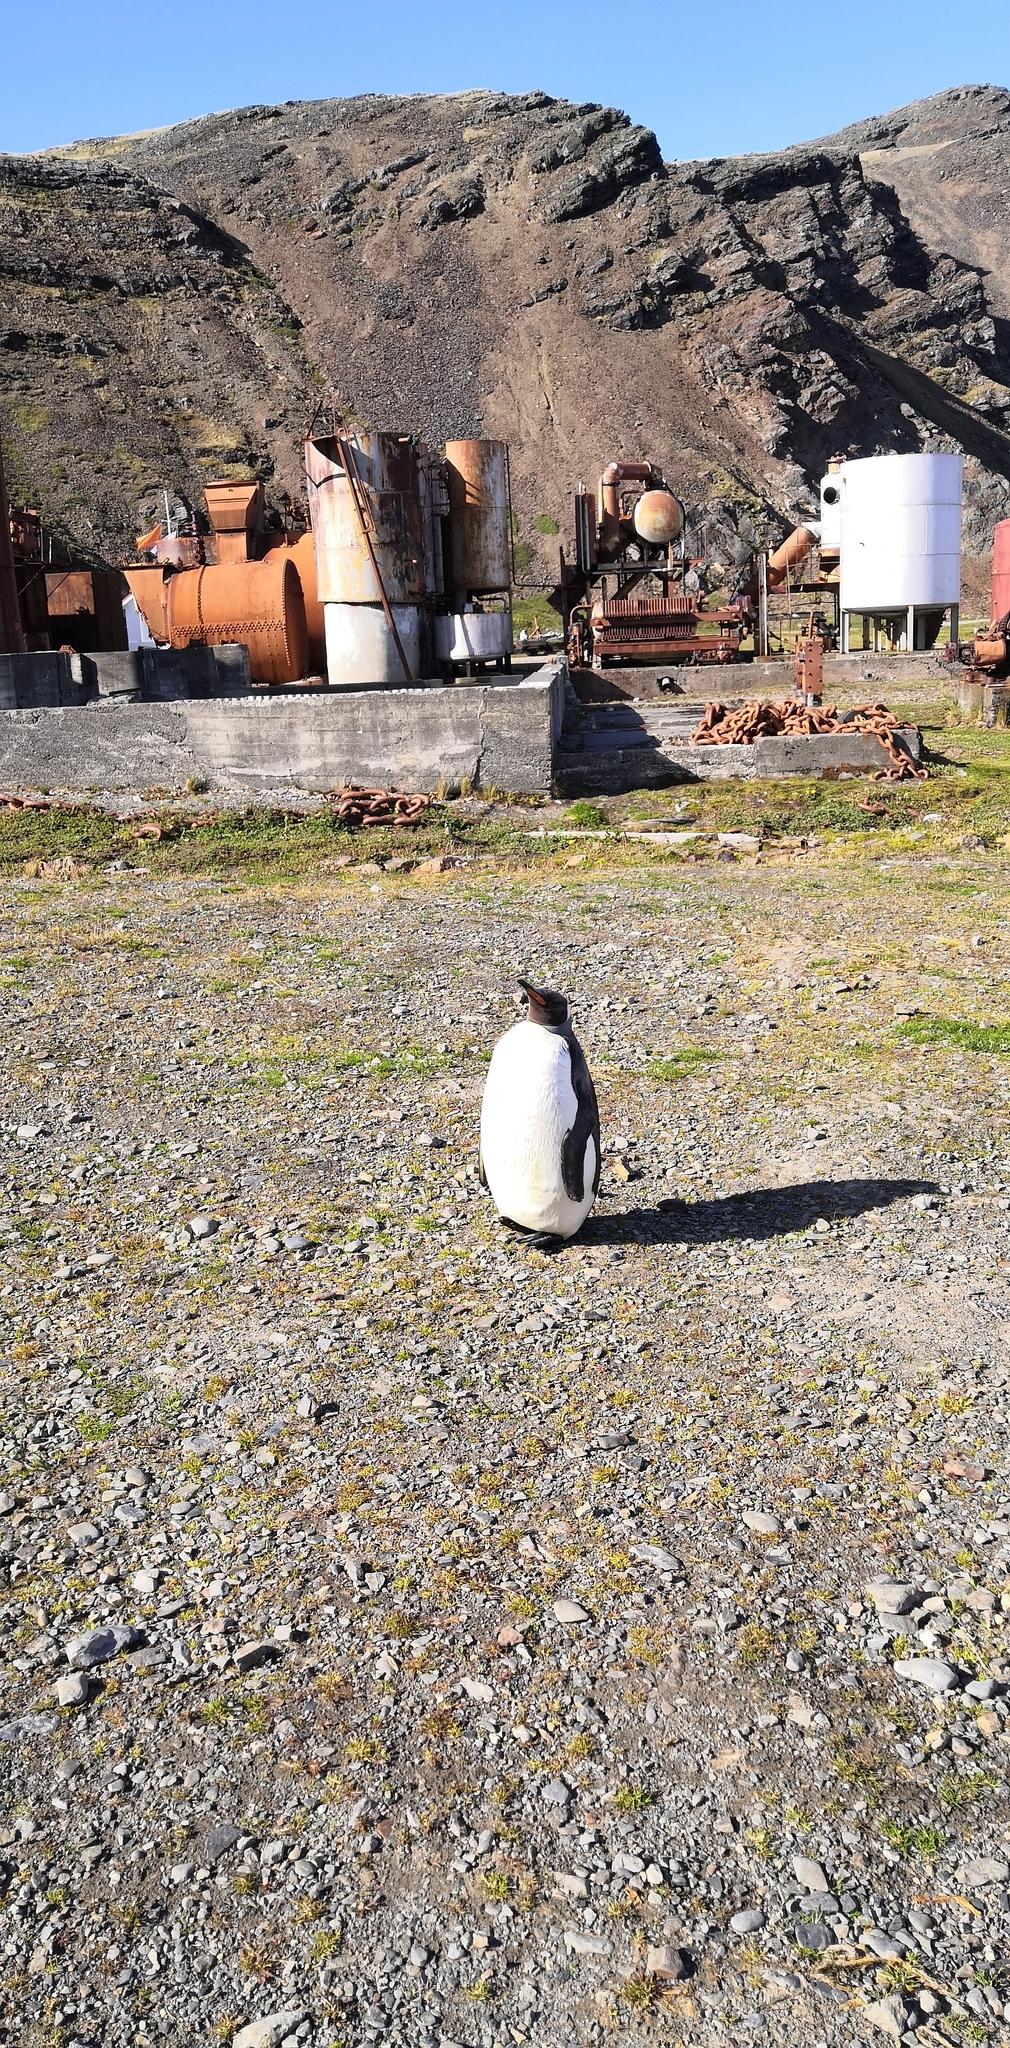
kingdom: Animalia
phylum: Chordata
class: Aves
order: Sphenisciformes
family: Spheniscidae
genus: Aptenodytes
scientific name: Aptenodytes patagonicus
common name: King penguin
